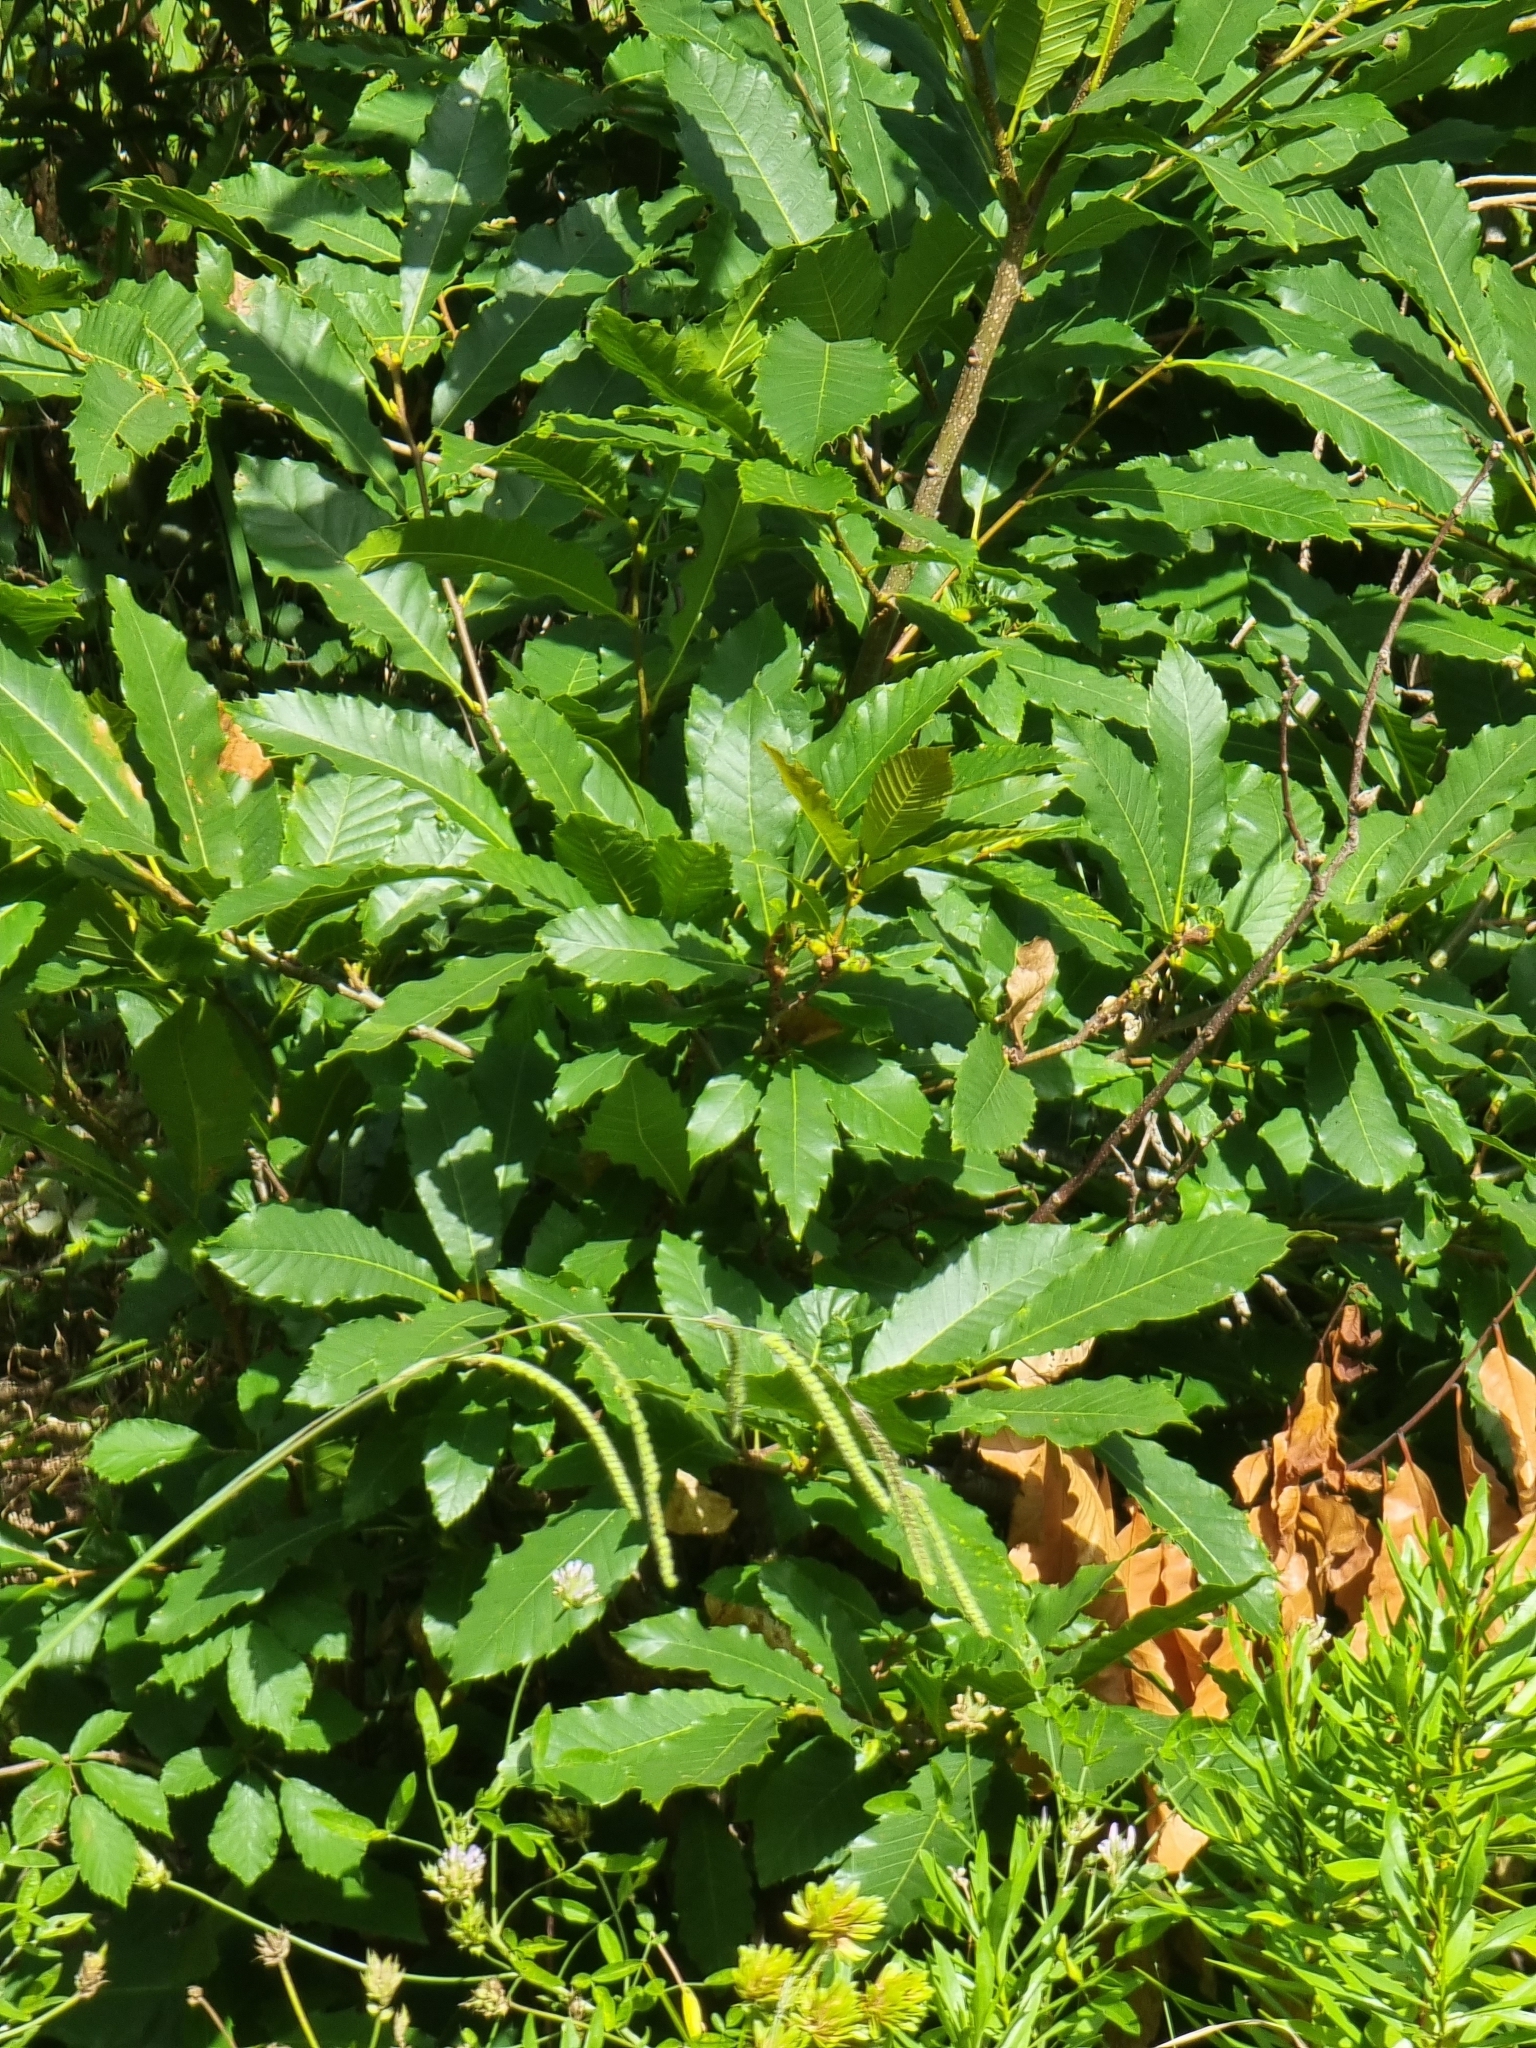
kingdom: Plantae
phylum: Tracheophyta
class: Magnoliopsida
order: Fagales
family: Fagaceae
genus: Castanea
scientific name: Castanea sativa
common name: Sweet chestnut
